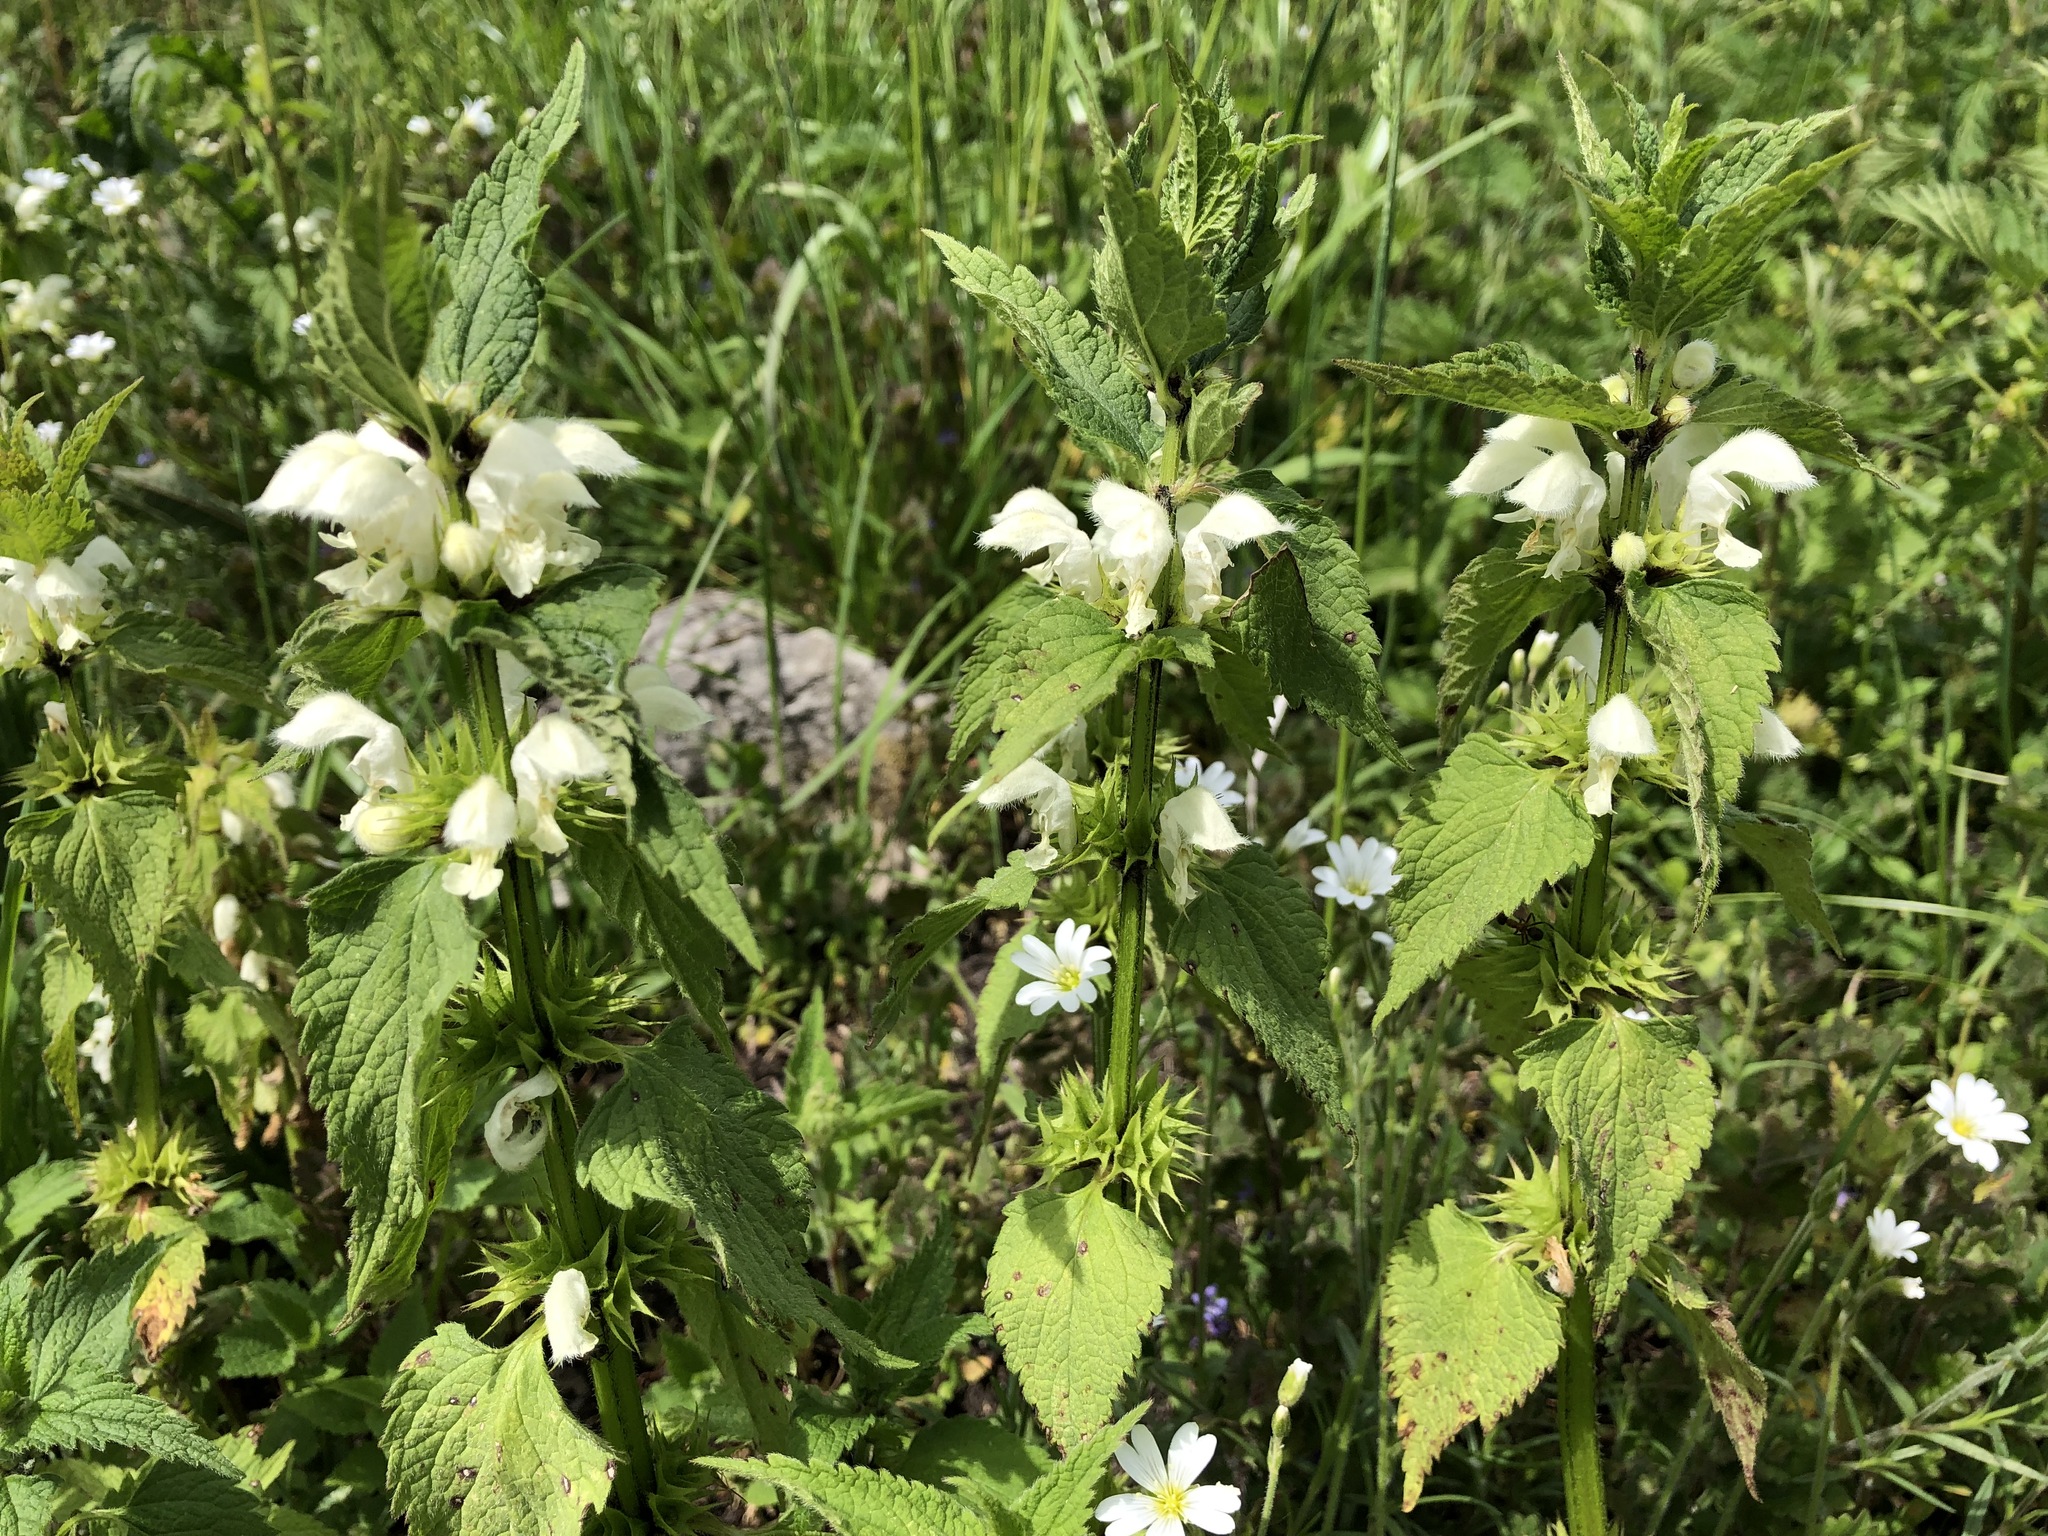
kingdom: Plantae
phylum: Tracheophyta
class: Magnoliopsida
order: Lamiales
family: Lamiaceae
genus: Lamium
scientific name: Lamium album
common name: White dead-nettle
